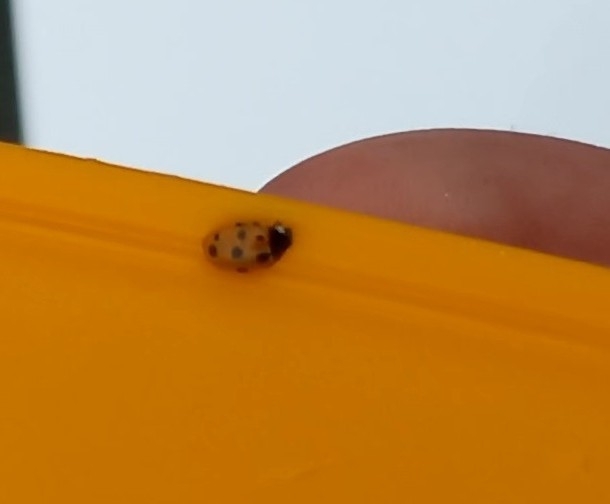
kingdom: Animalia
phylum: Arthropoda
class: Insecta
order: Coleoptera
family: Coccinellidae
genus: Coccinella
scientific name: Coccinella undecimpunctata
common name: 11-spot ladybird
